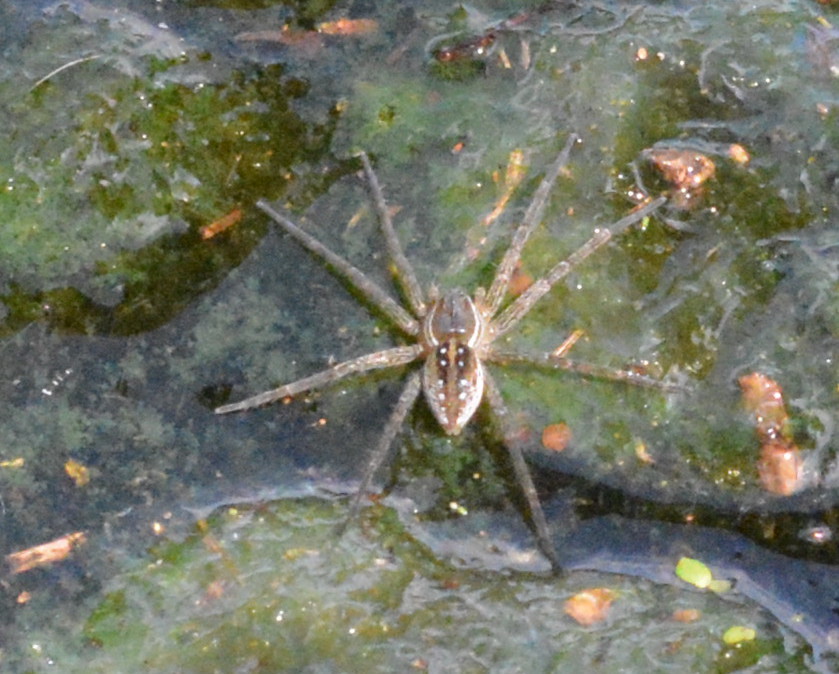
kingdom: Animalia
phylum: Arthropoda
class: Arachnida
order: Araneae
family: Pisauridae
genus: Dolomedes
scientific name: Dolomedes triton
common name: Six-spotted fishing spider
